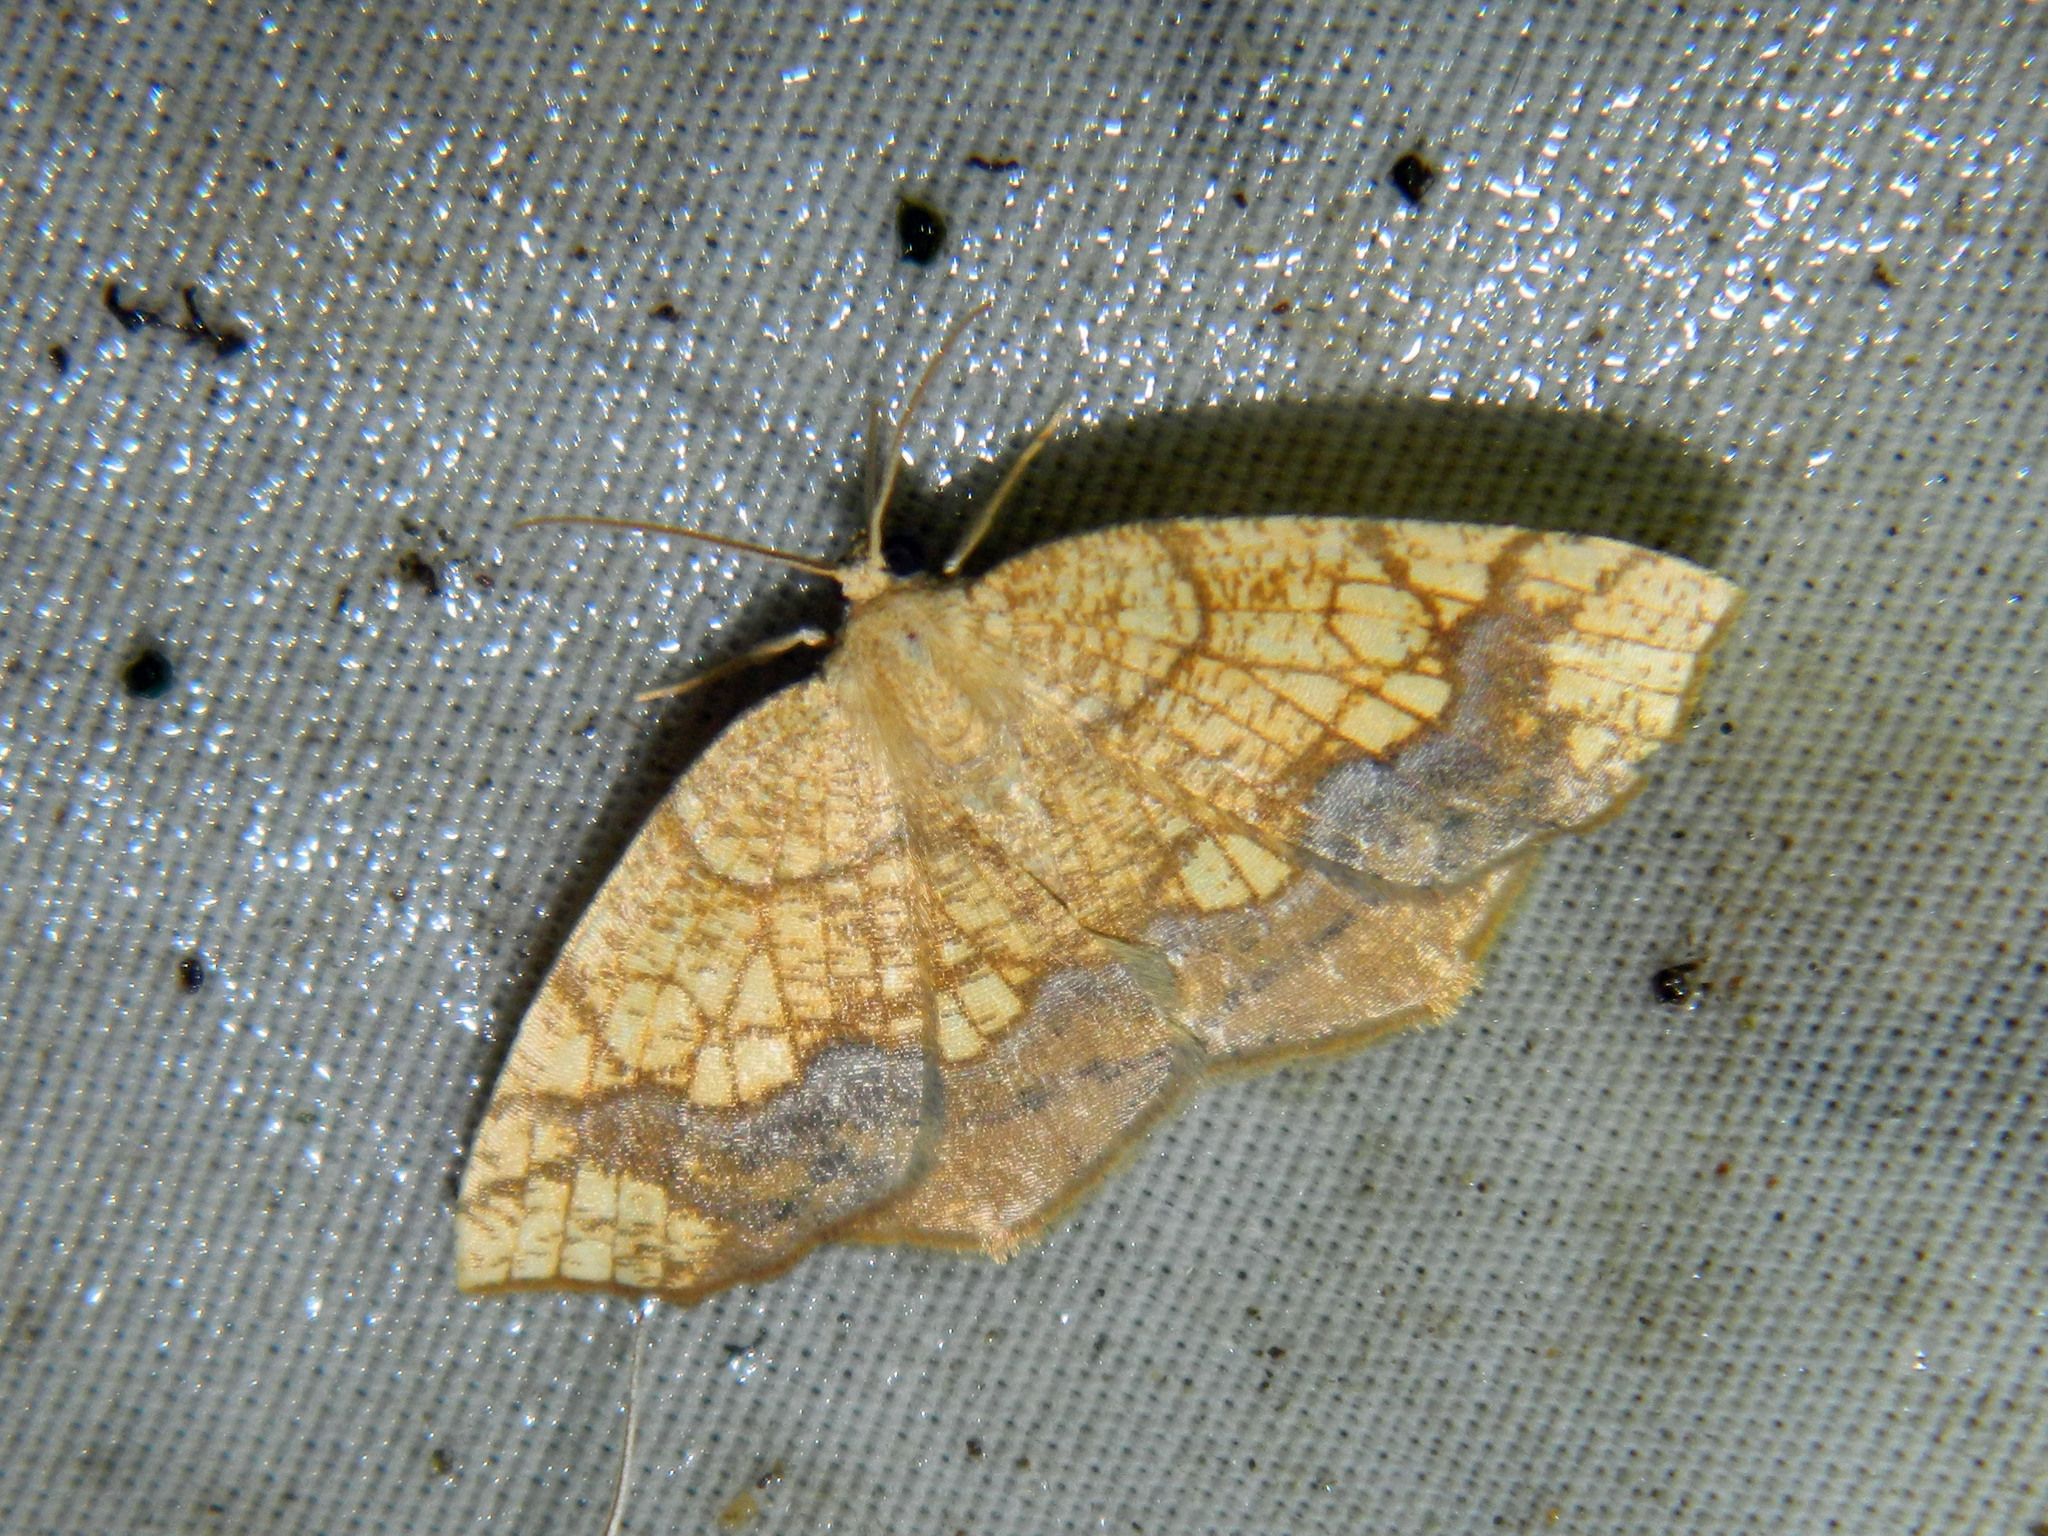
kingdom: Animalia
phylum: Arthropoda
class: Insecta
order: Lepidoptera
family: Geometridae
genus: Nematocampa
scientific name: Nematocampa resistaria
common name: Horned spanworm moth
